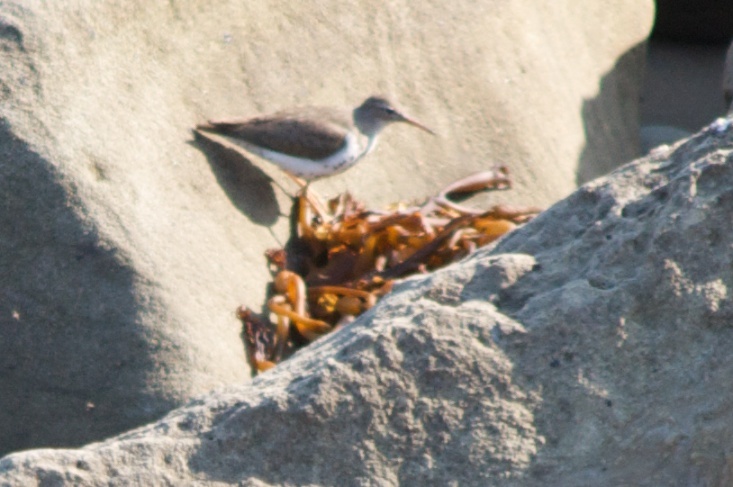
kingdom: Animalia
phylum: Chordata
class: Aves
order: Charadriiformes
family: Scolopacidae
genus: Actitis
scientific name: Actitis macularius
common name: Spotted sandpiper
